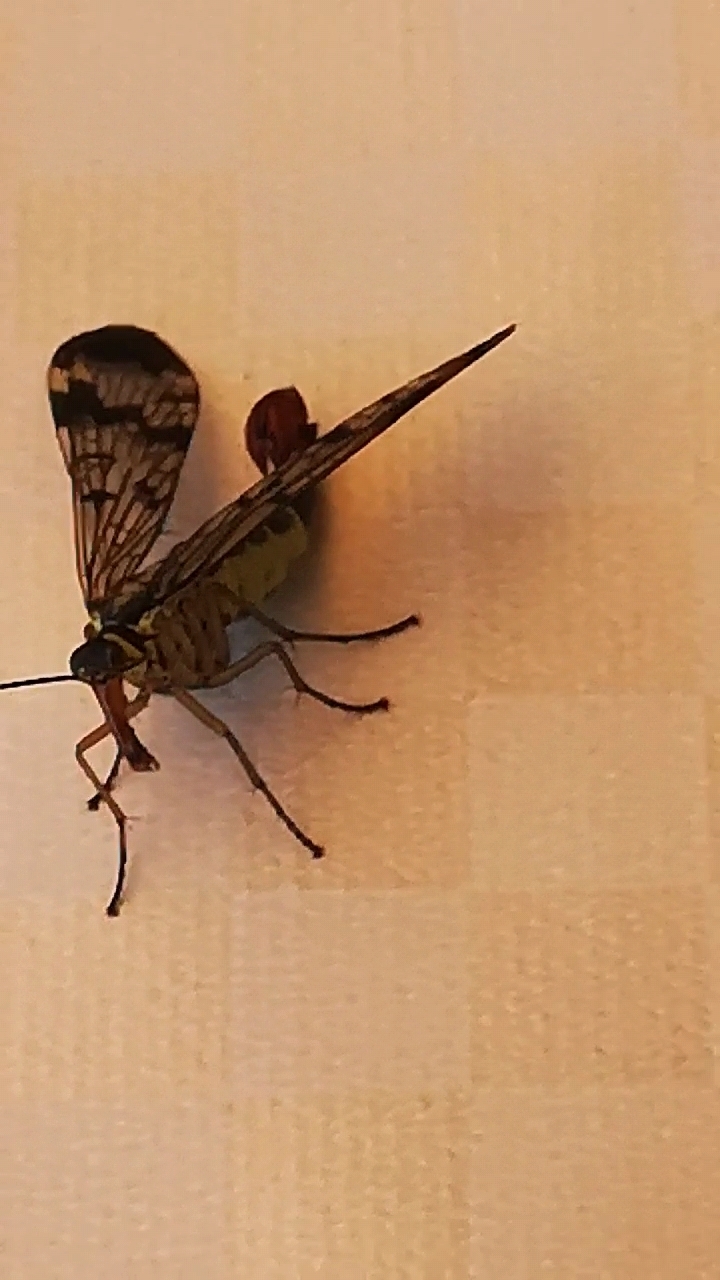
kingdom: Animalia
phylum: Arthropoda
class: Insecta
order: Mecoptera
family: Panorpidae
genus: Panorpa
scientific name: Panorpa communis
